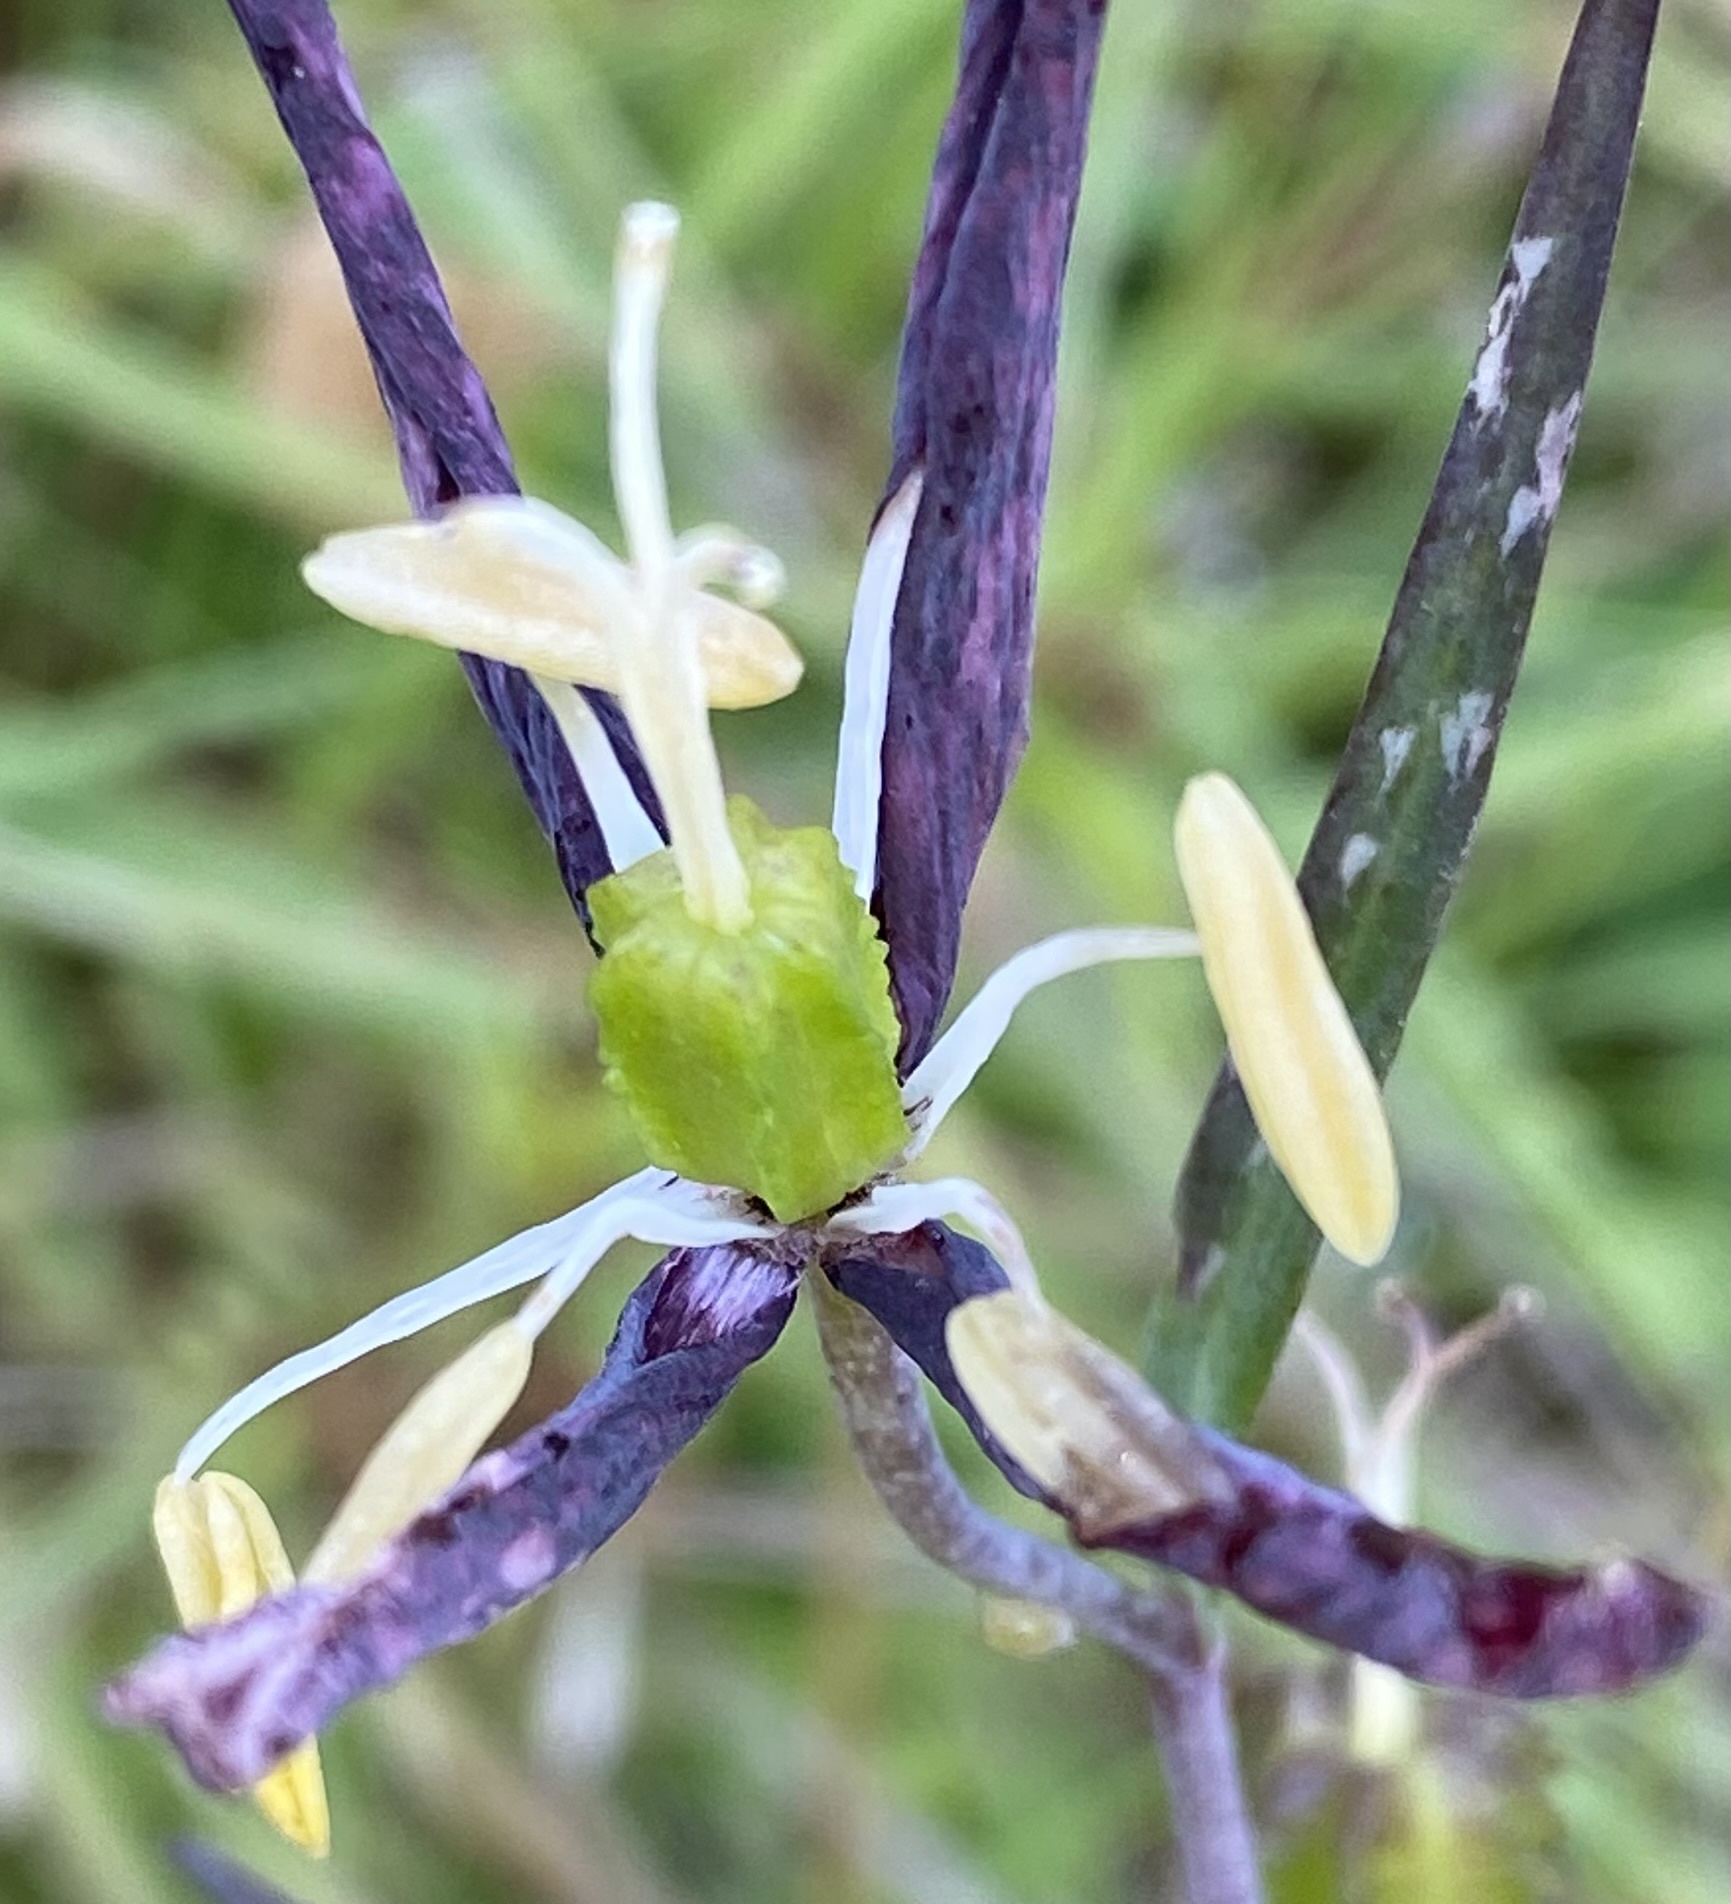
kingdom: Plantae
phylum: Tracheophyta
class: Liliopsida
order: Liliales
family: Liliaceae
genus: Fritillaria
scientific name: Fritillaria affinis
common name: Ojai fritillary
